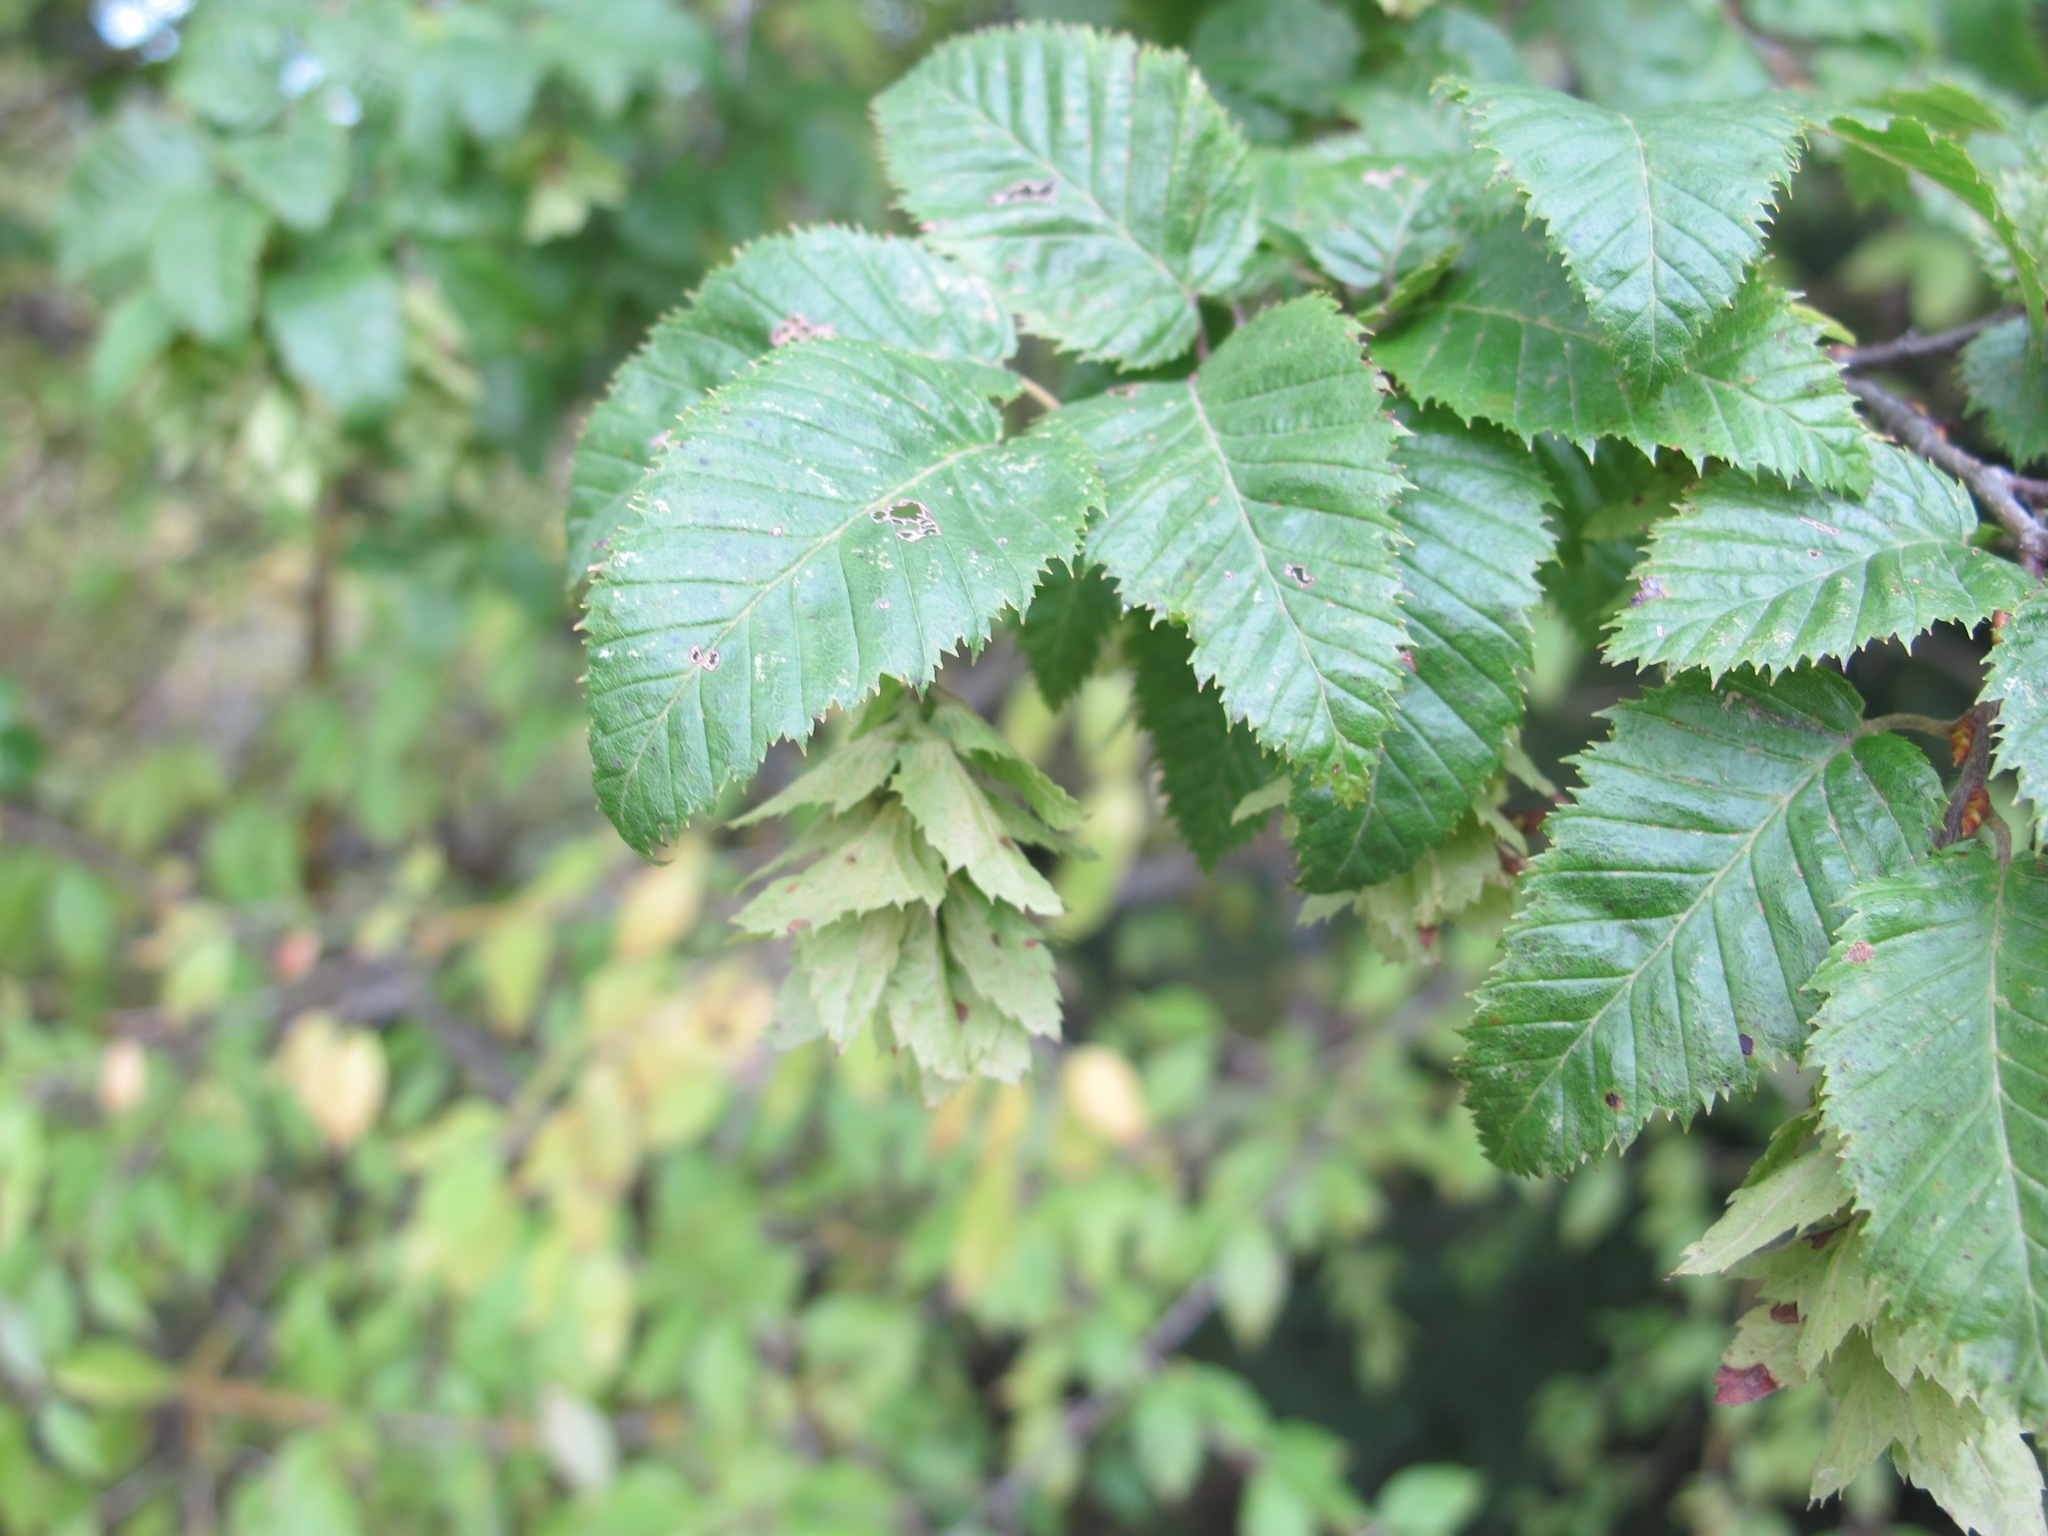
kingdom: Plantae
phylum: Tracheophyta
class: Magnoliopsida
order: Fagales
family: Betulaceae
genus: Carpinus
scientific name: Carpinus orientalis
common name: Eastern hornbeam
